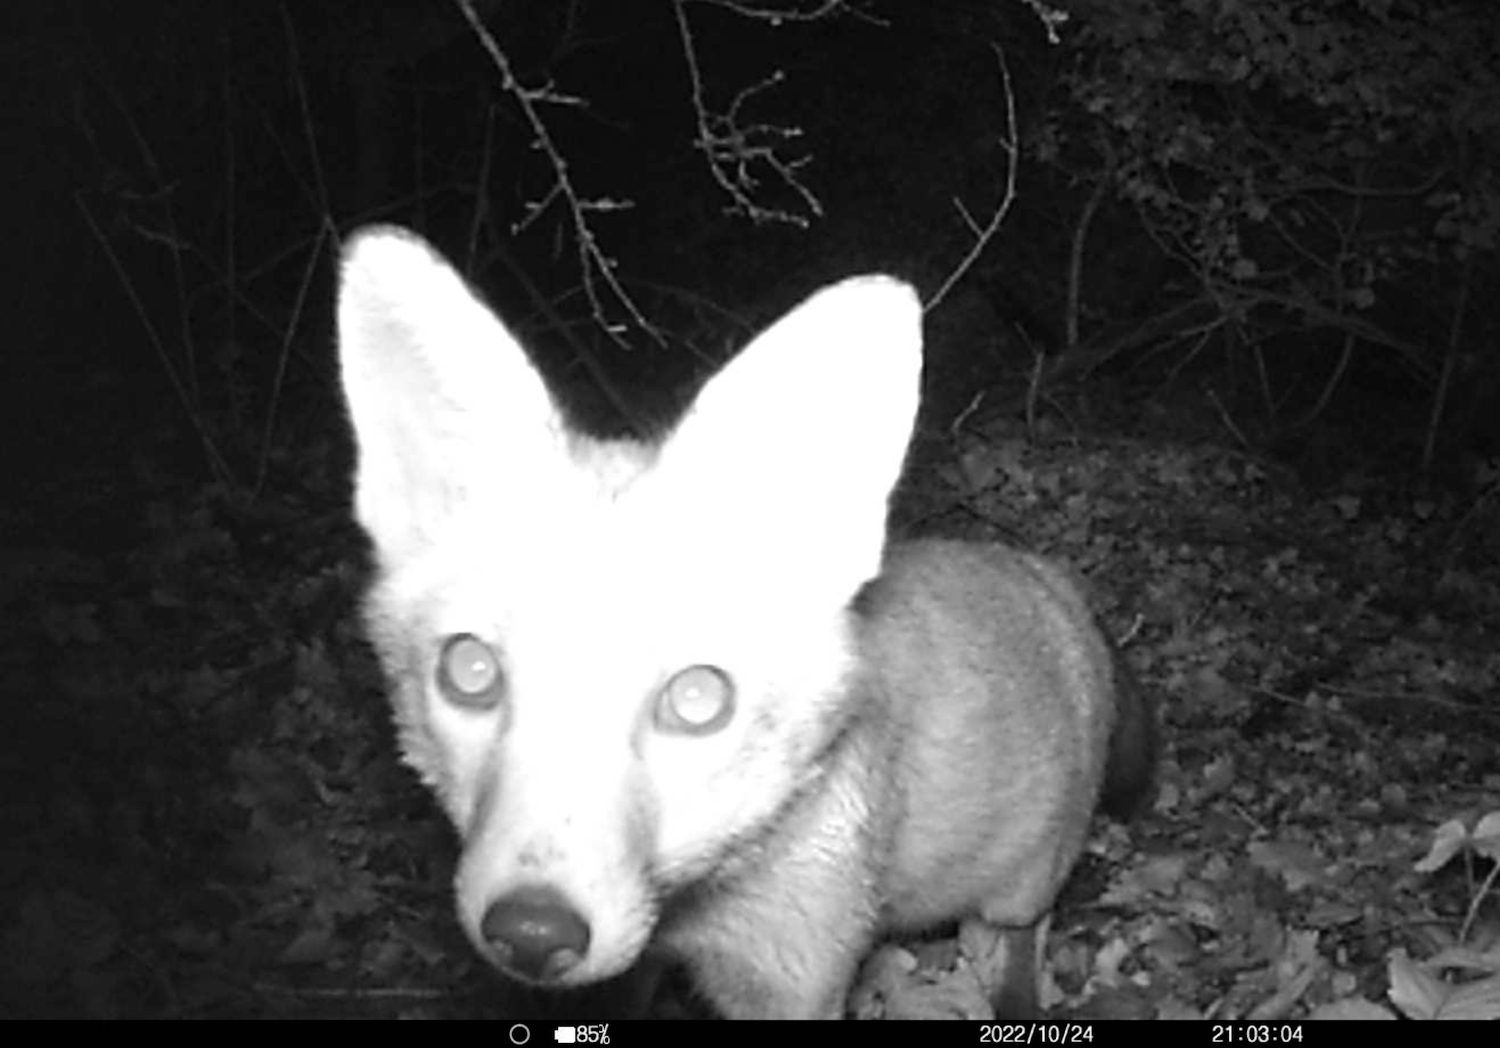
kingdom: Animalia
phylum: Chordata
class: Mammalia
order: Carnivora
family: Canidae
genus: Vulpes
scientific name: Vulpes vulpes
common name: Red fox
